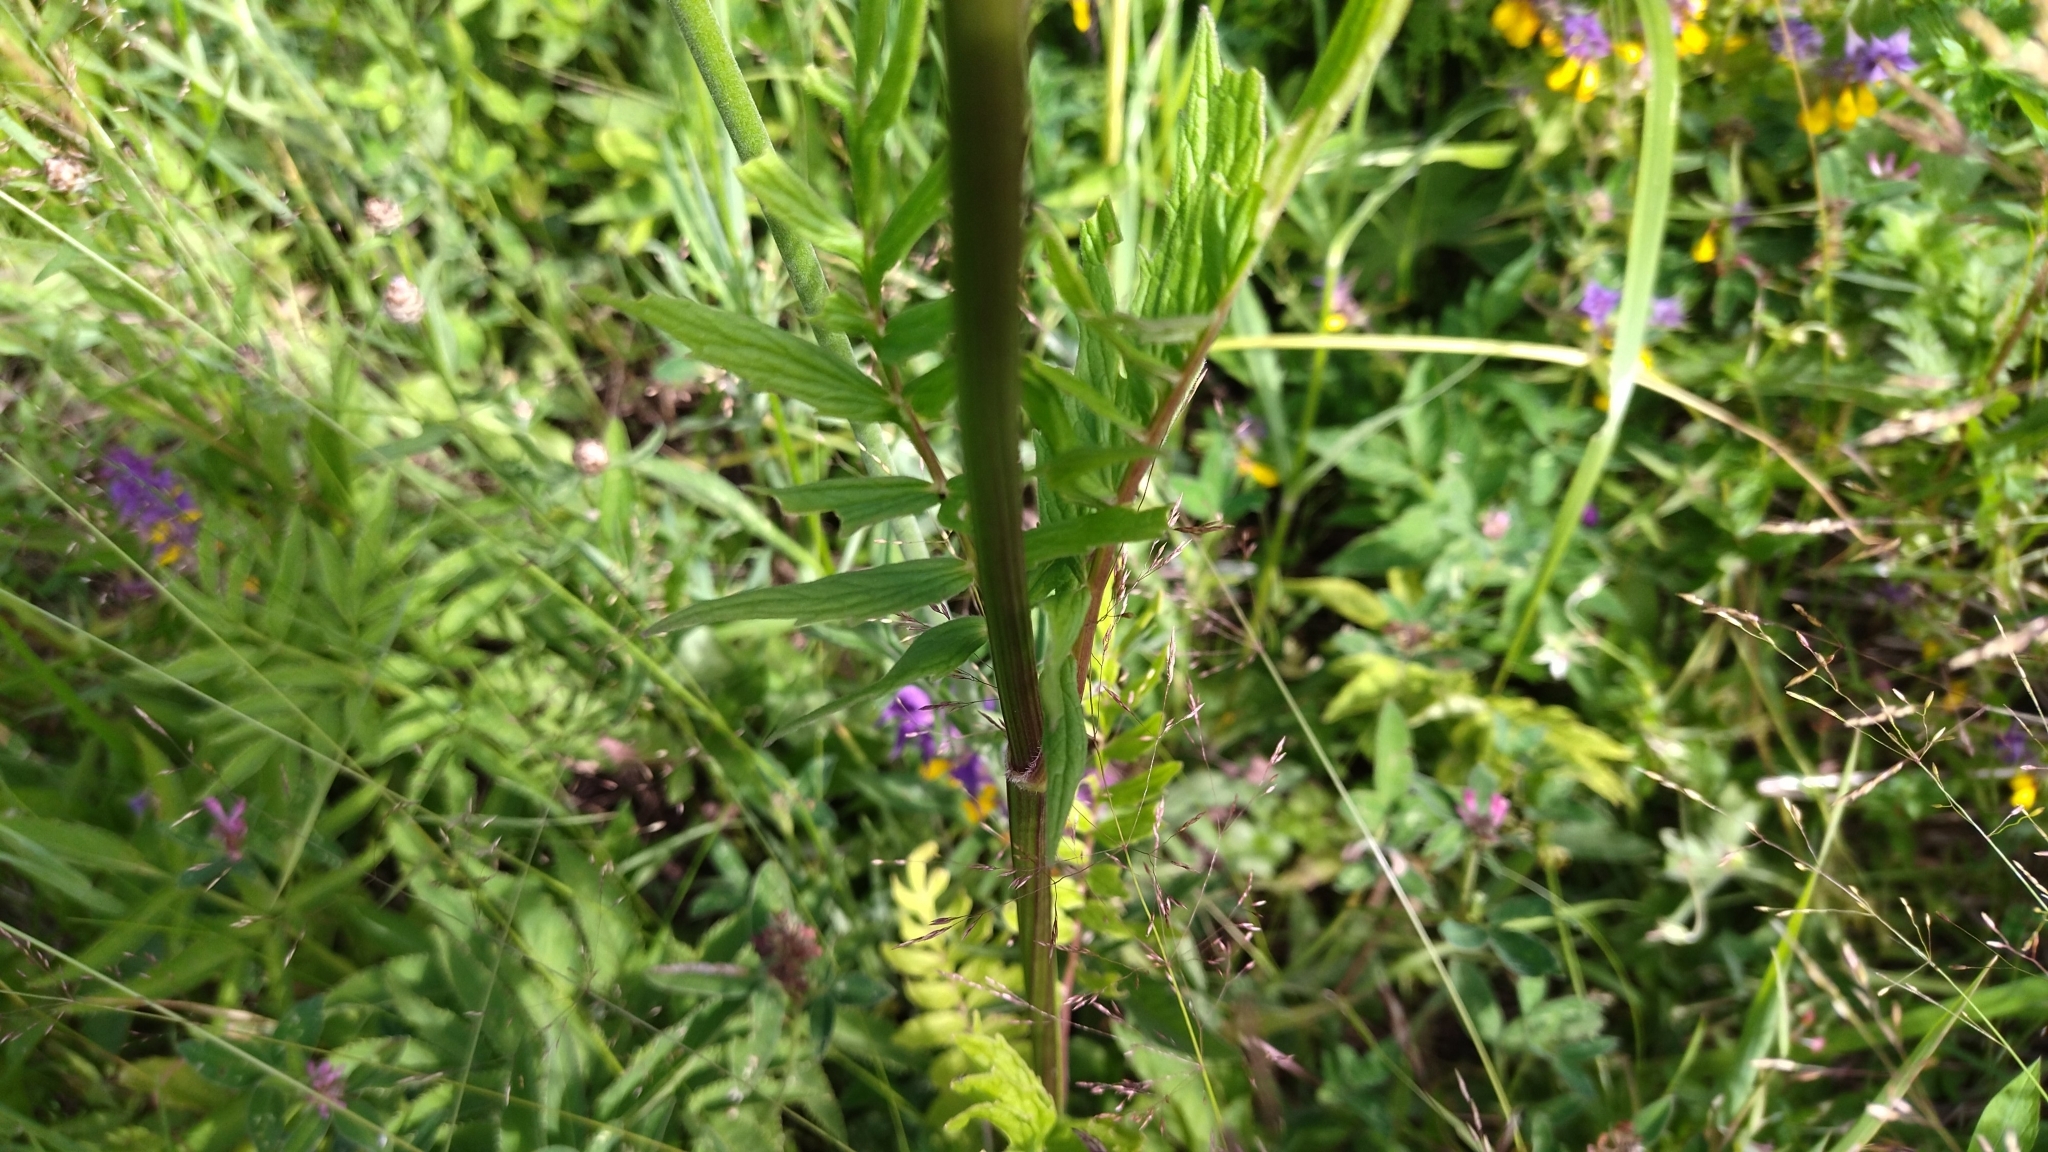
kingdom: Plantae
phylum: Tracheophyta
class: Magnoliopsida
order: Dipsacales
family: Caprifoliaceae
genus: Valeriana
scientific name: Valeriana officinalis
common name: Common valerian
